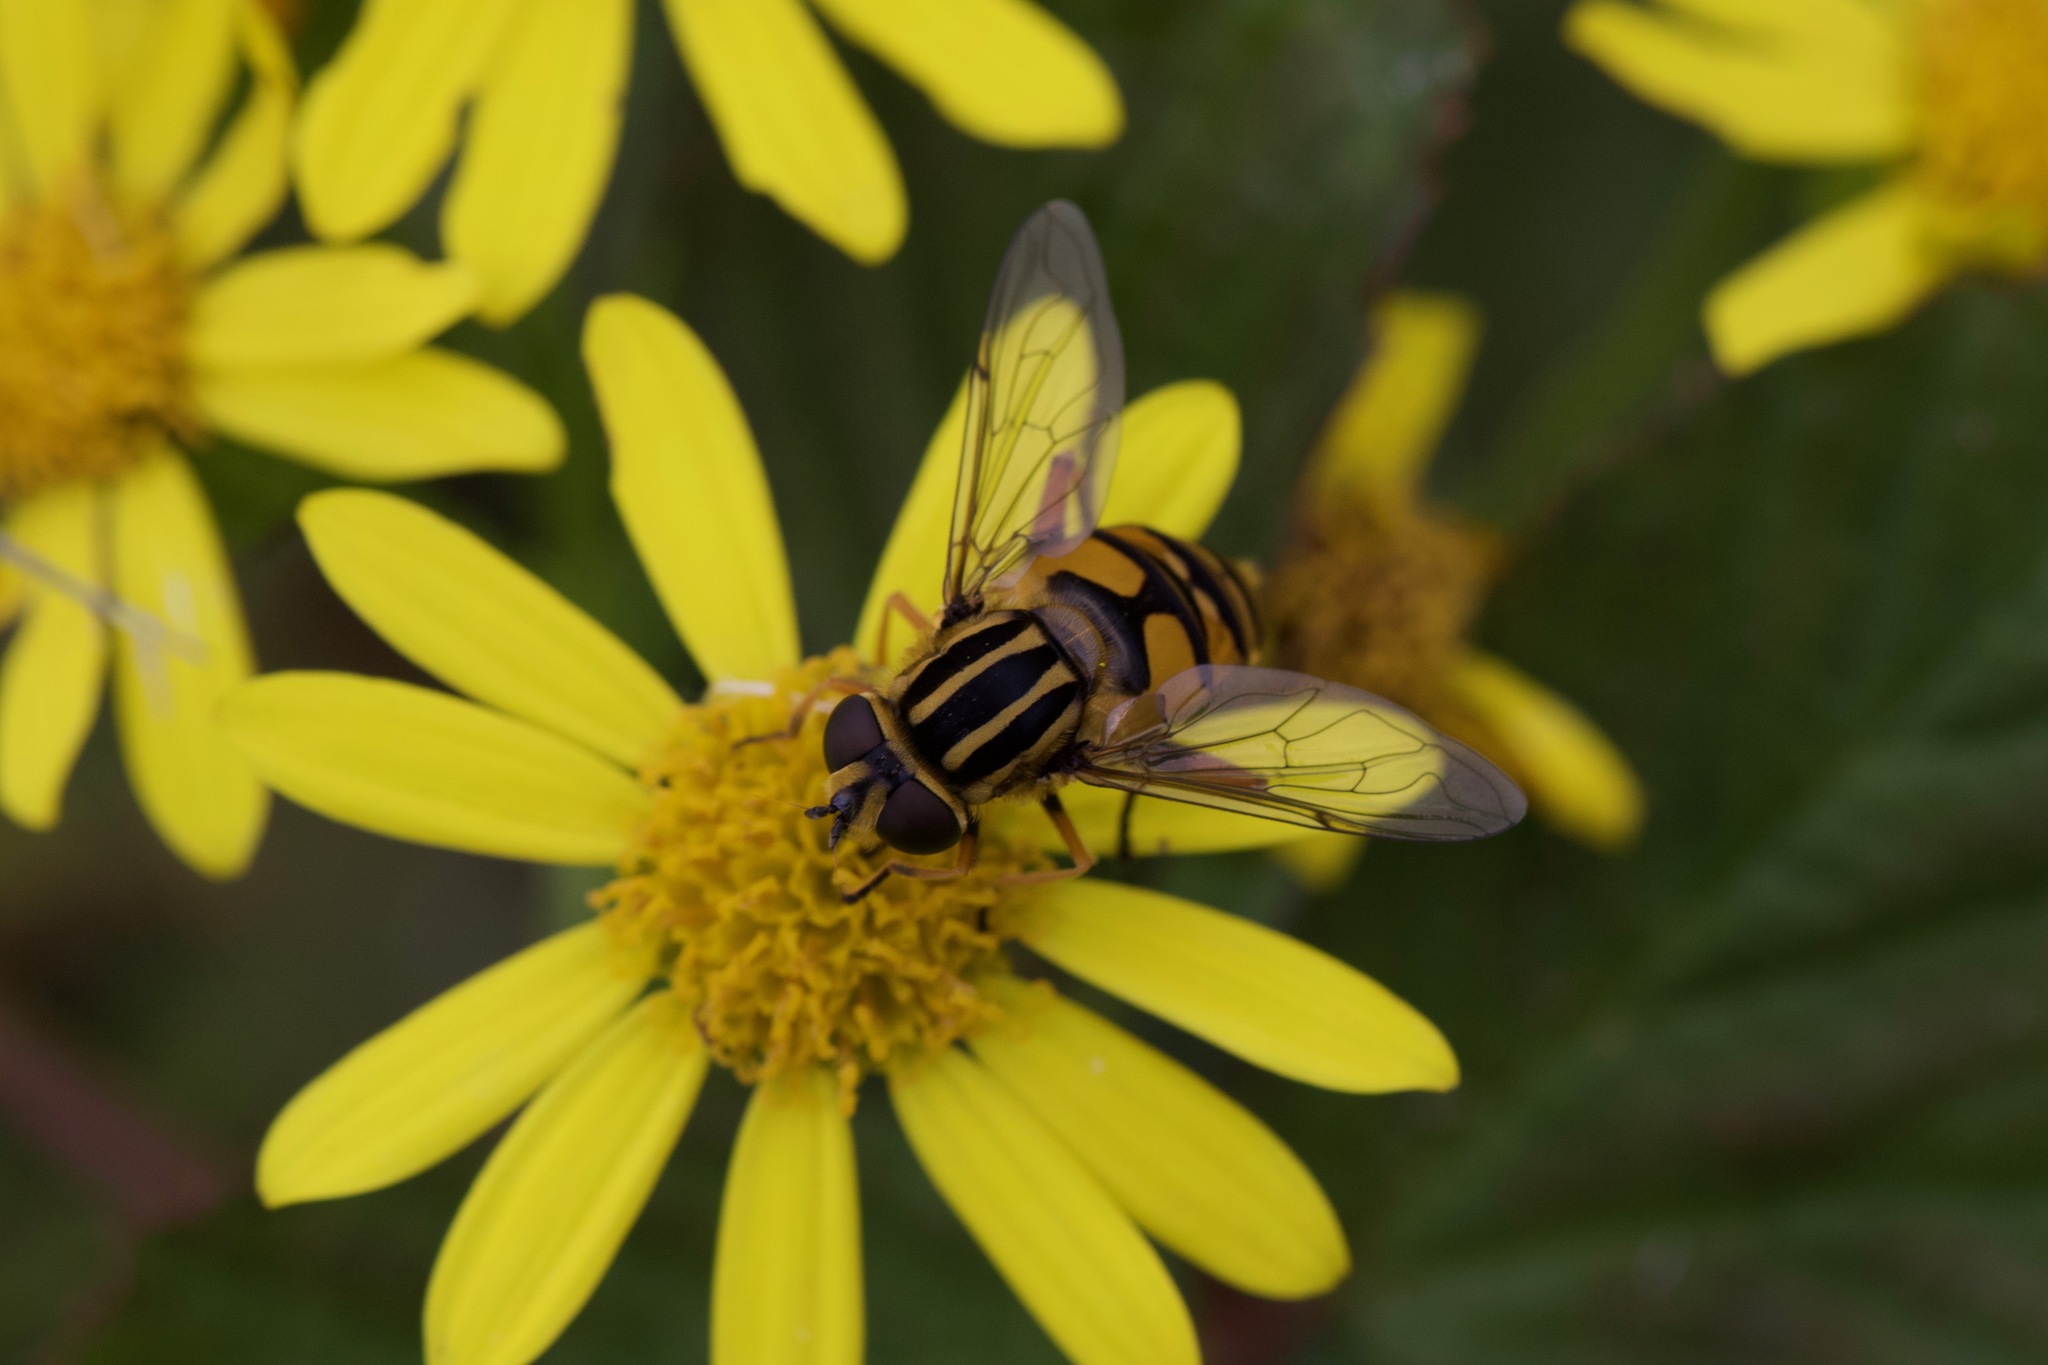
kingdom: Animalia
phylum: Arthropoda
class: Insecta
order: Diptera
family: Syrphidae
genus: Helophilus
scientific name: Helophilus pendulus
